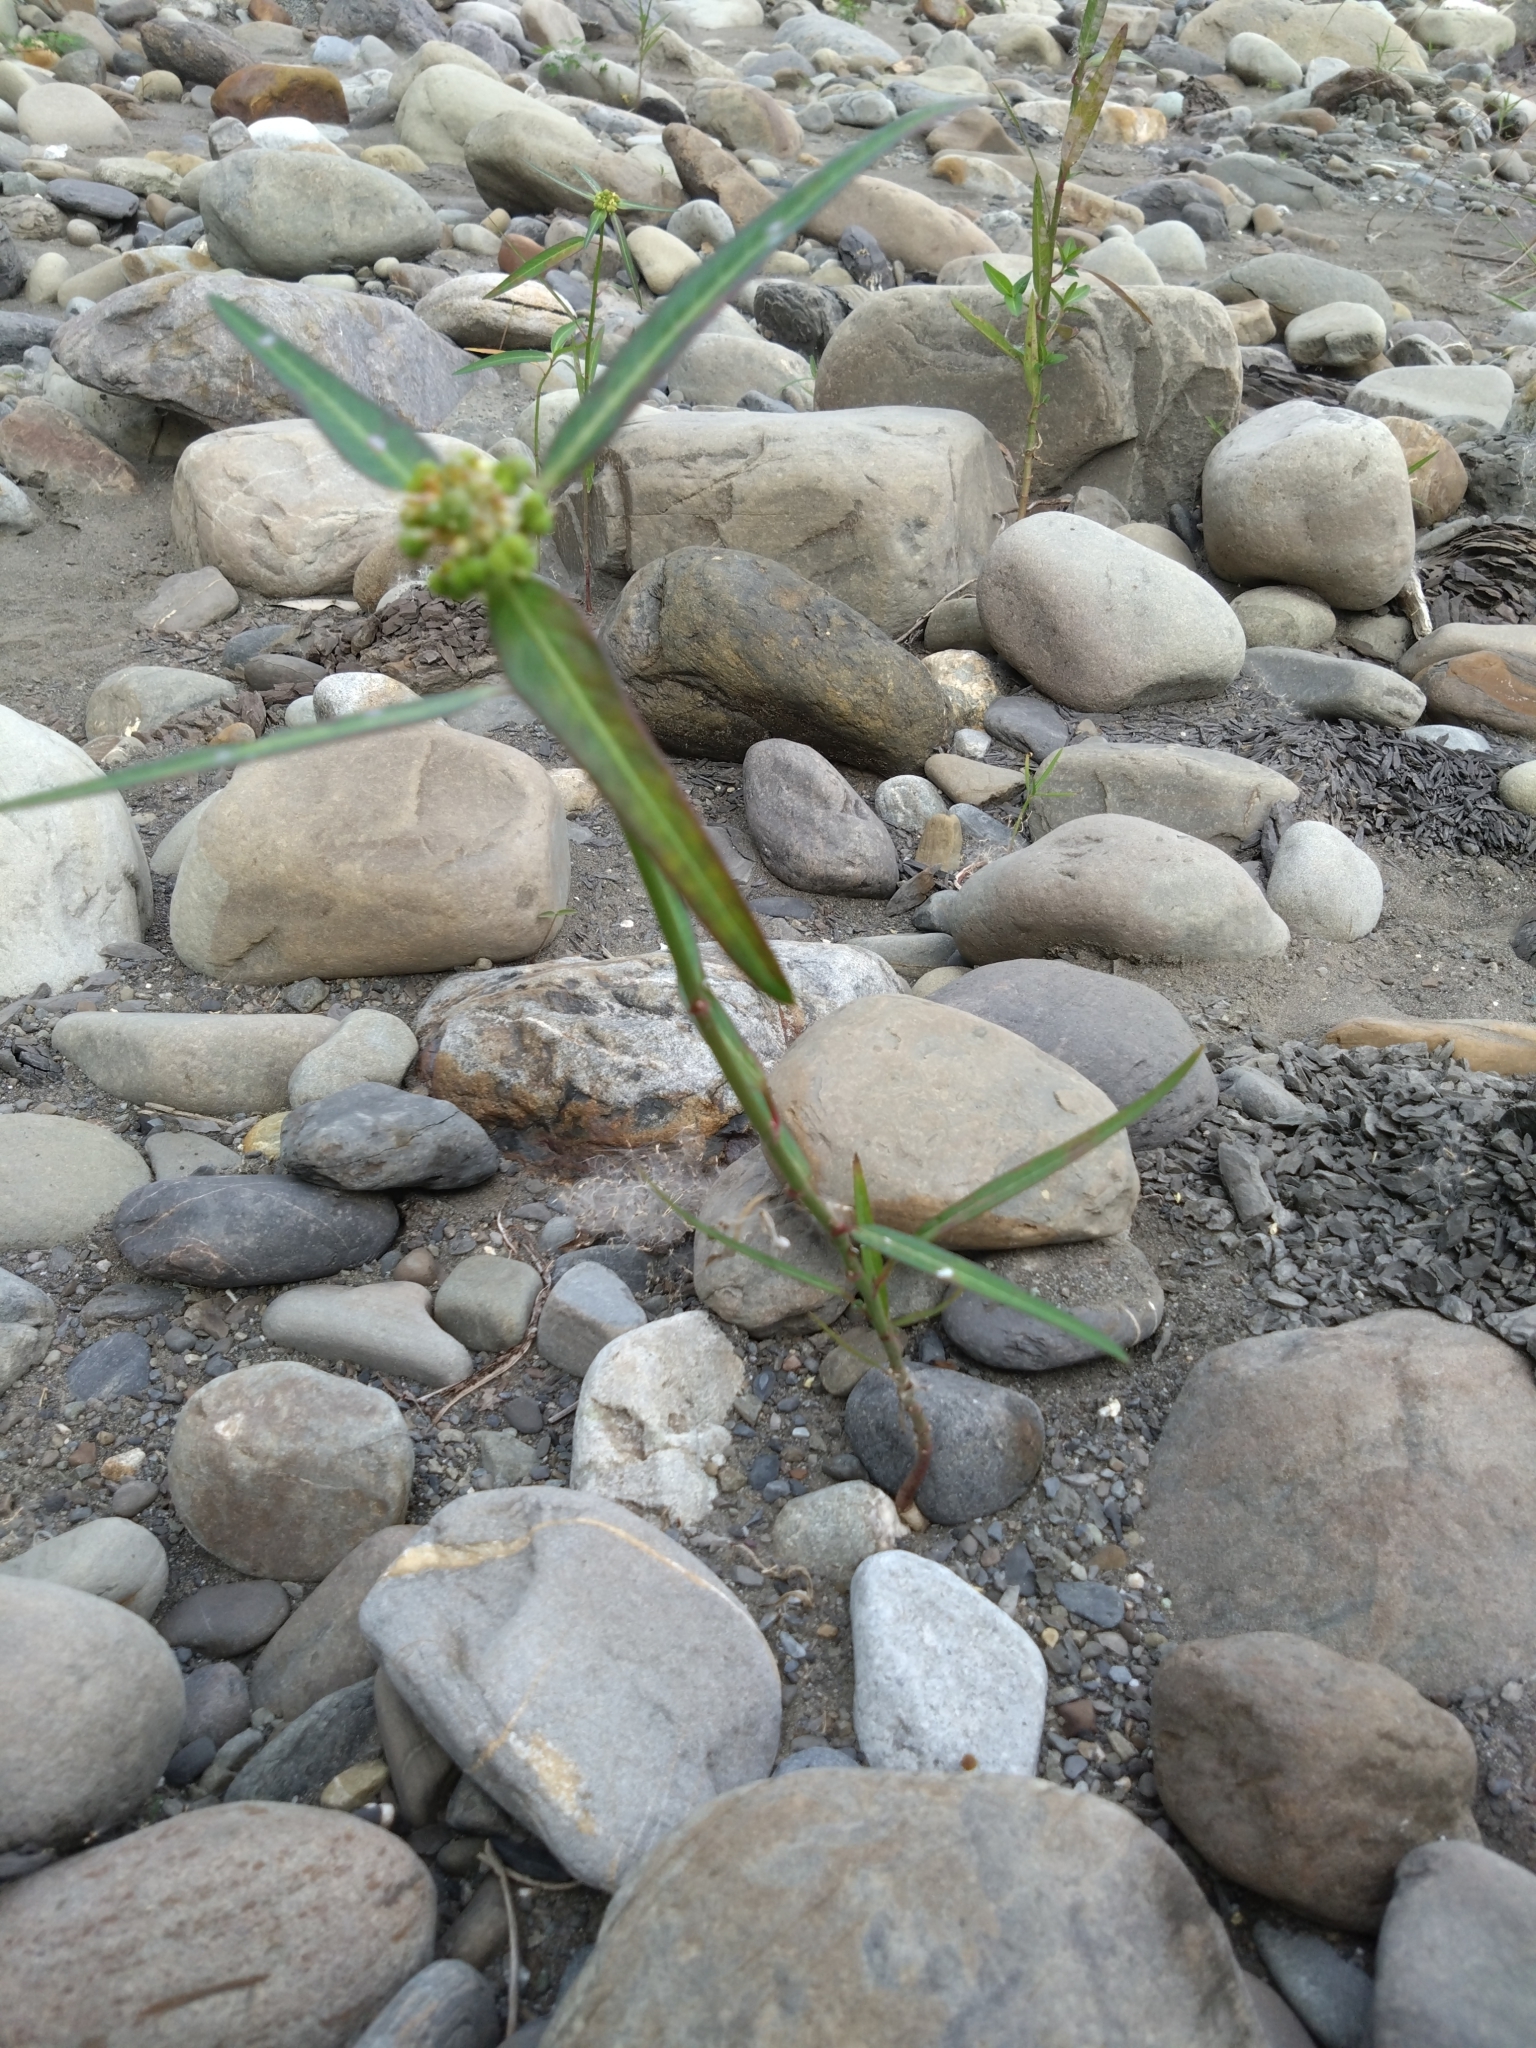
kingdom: Plantae
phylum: Tracheophyta
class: Magnoliopsida
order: Malpighiales
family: Euphorbiaceae
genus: Euphorbia
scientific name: Euphorbia heterophylla
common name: Mexican fireplant
